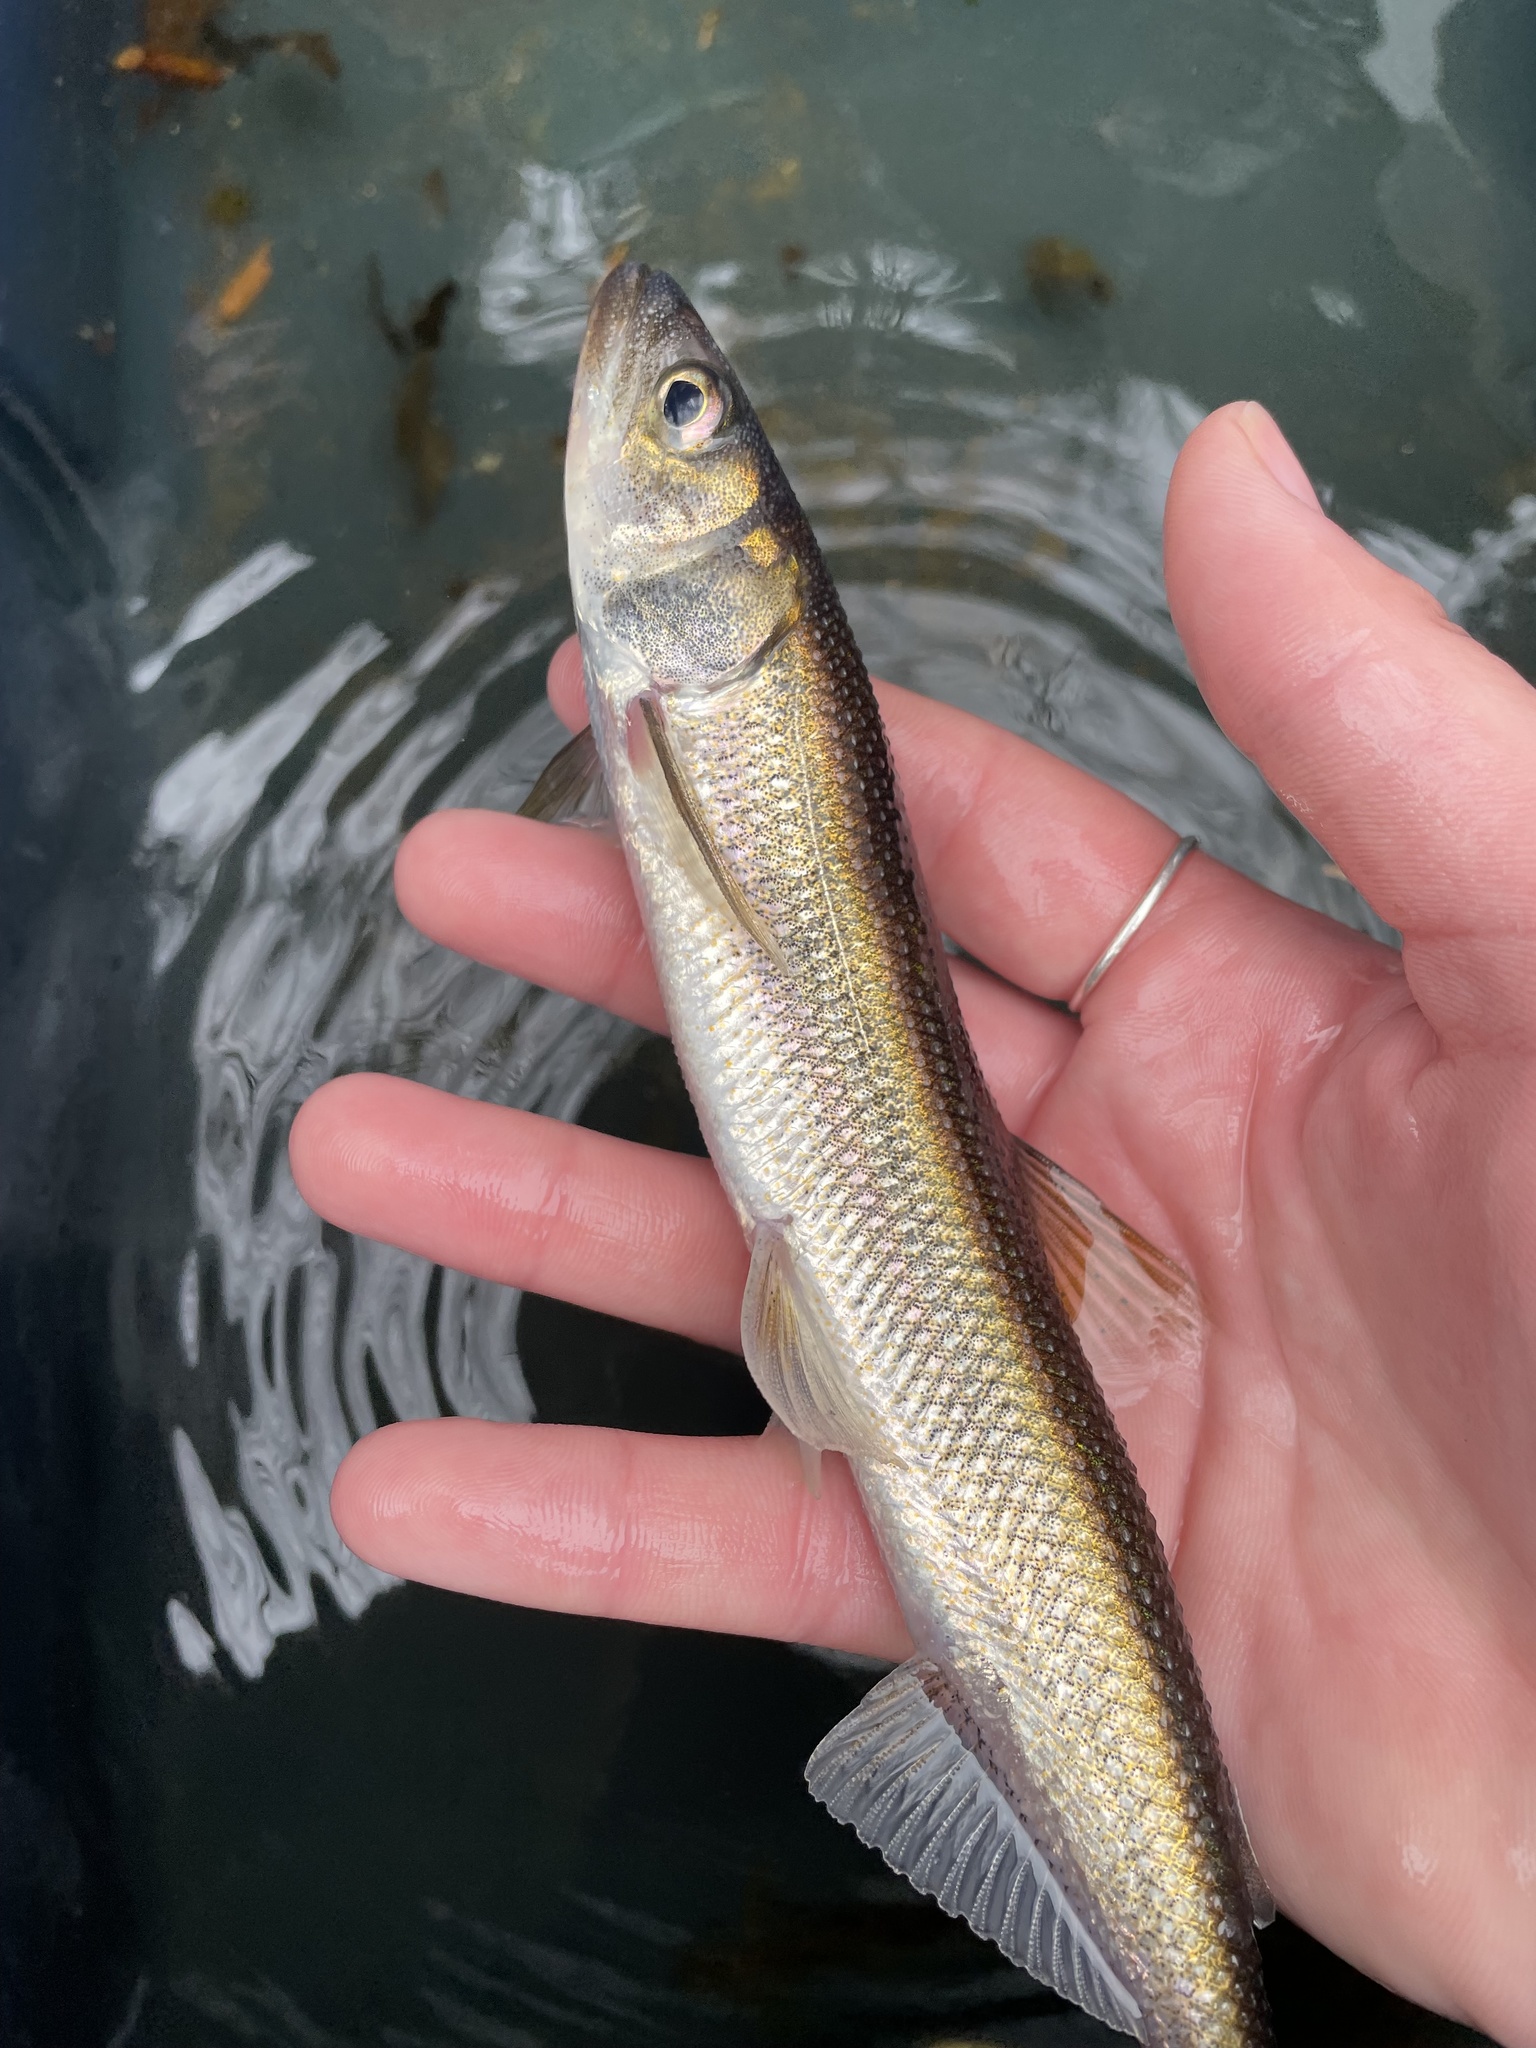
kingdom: Animalia
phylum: Chordata
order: Osmeriformes
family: Osmeridae
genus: Osmerus
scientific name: Osmerus mordax
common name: Rainbow smelt
